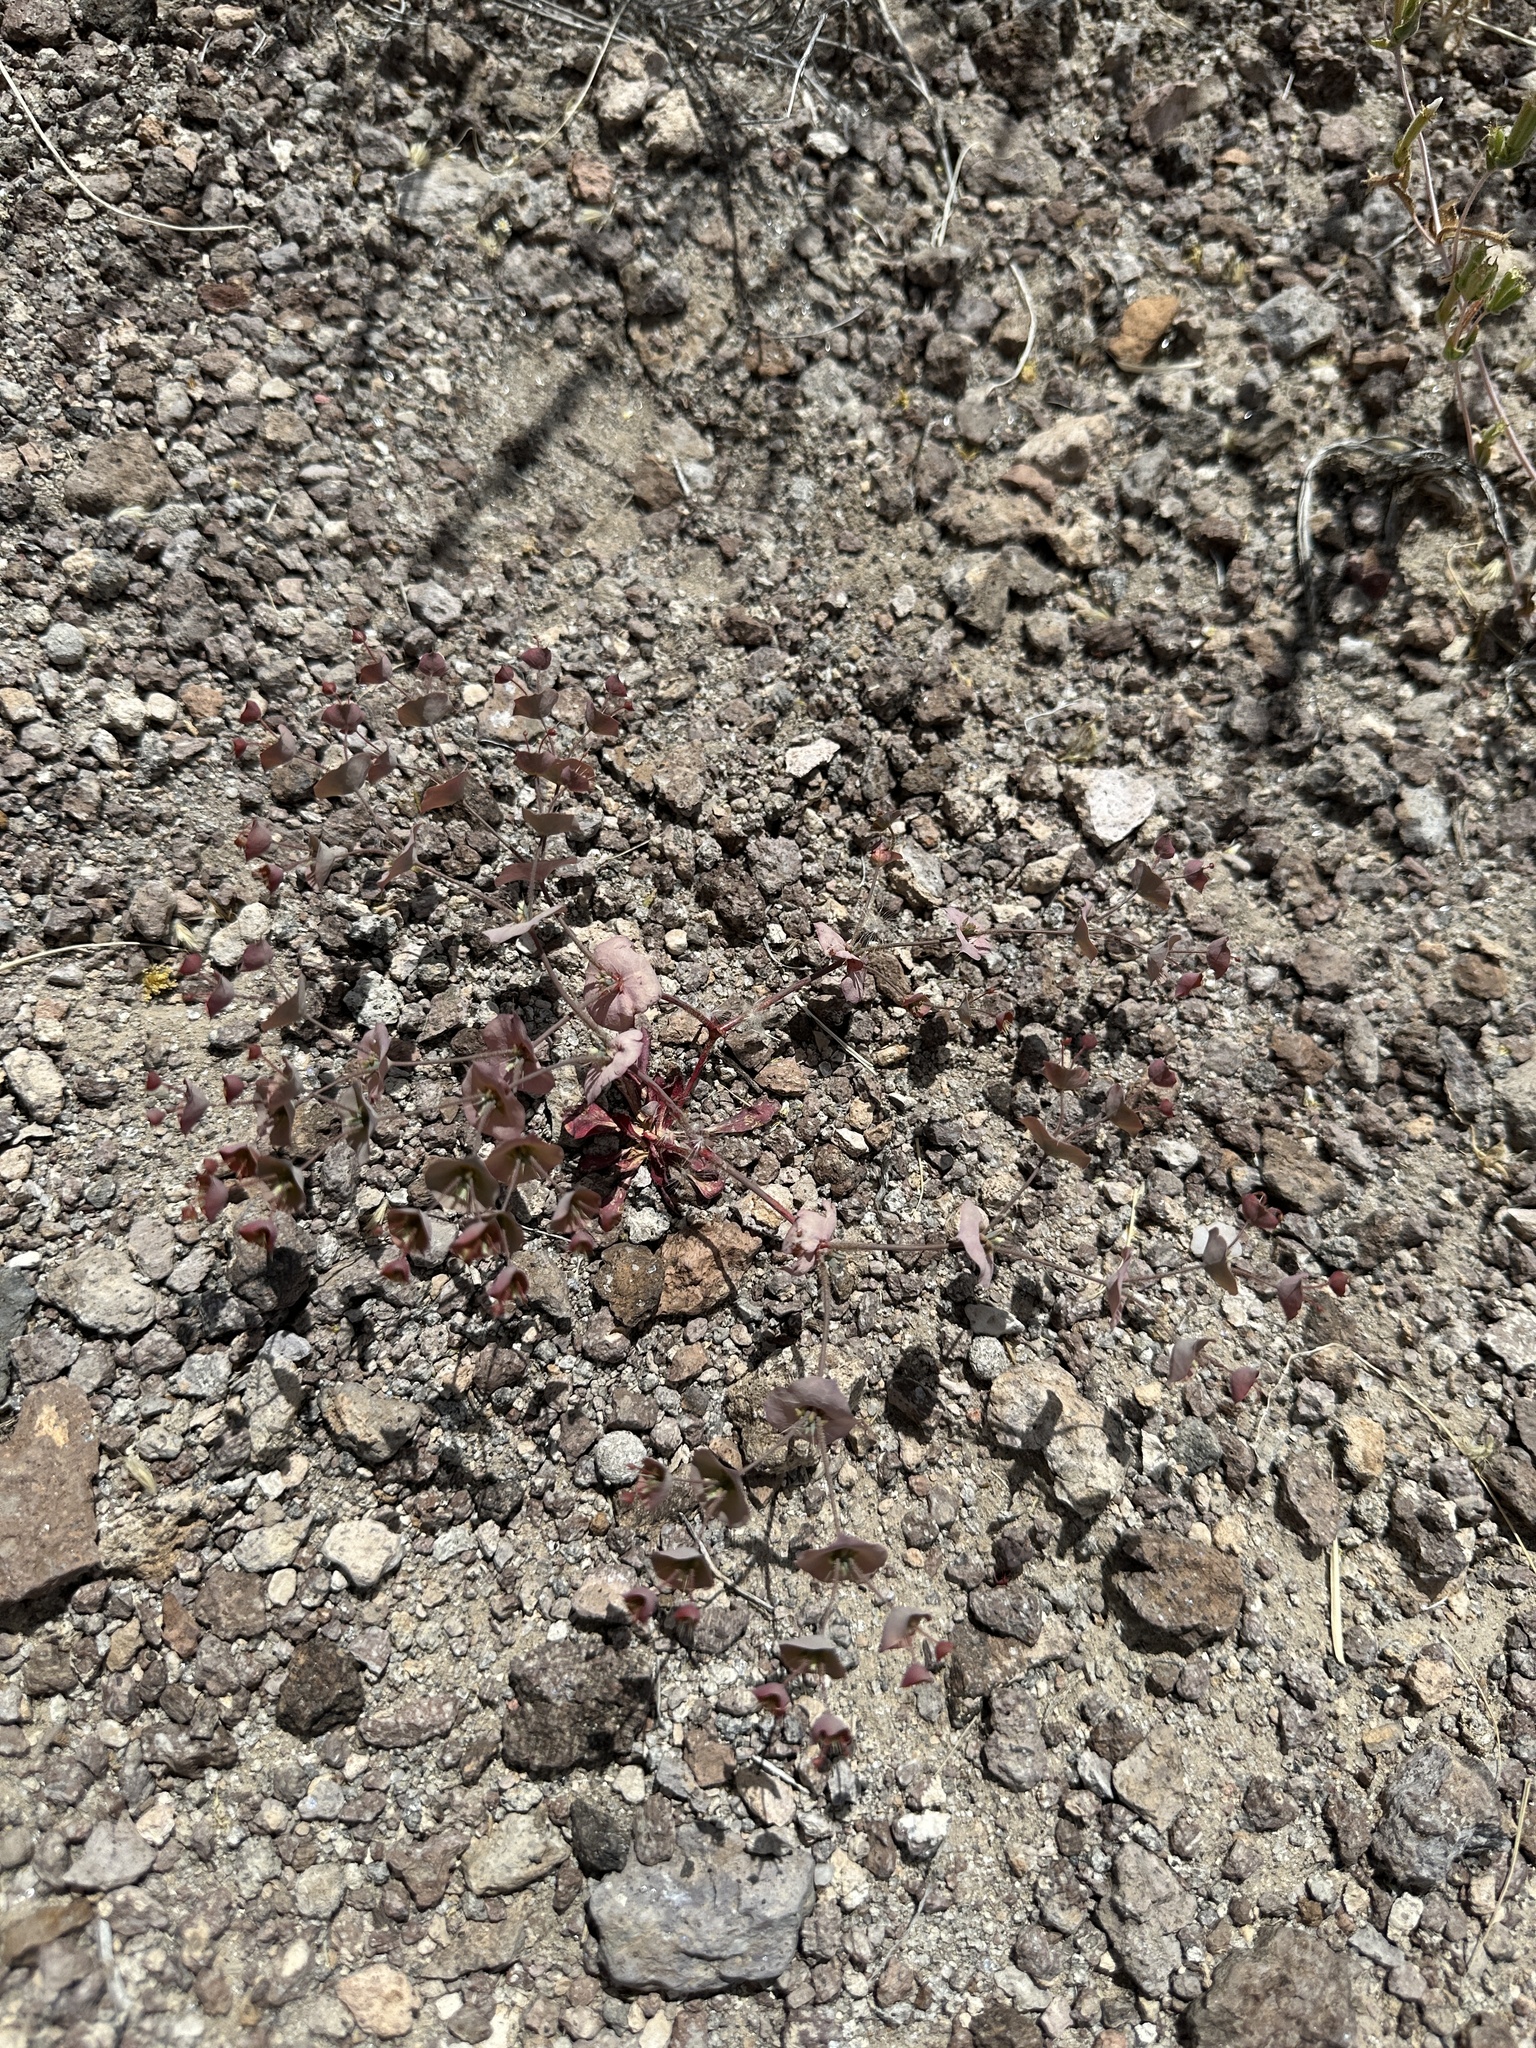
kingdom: Plantae
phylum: Tracheophyta
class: Magnoliopsida
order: Caryophyllales
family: Polygonaceae
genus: Oxytheca
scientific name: Oxytheca perfoliata
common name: Round-leaf puncturebract
